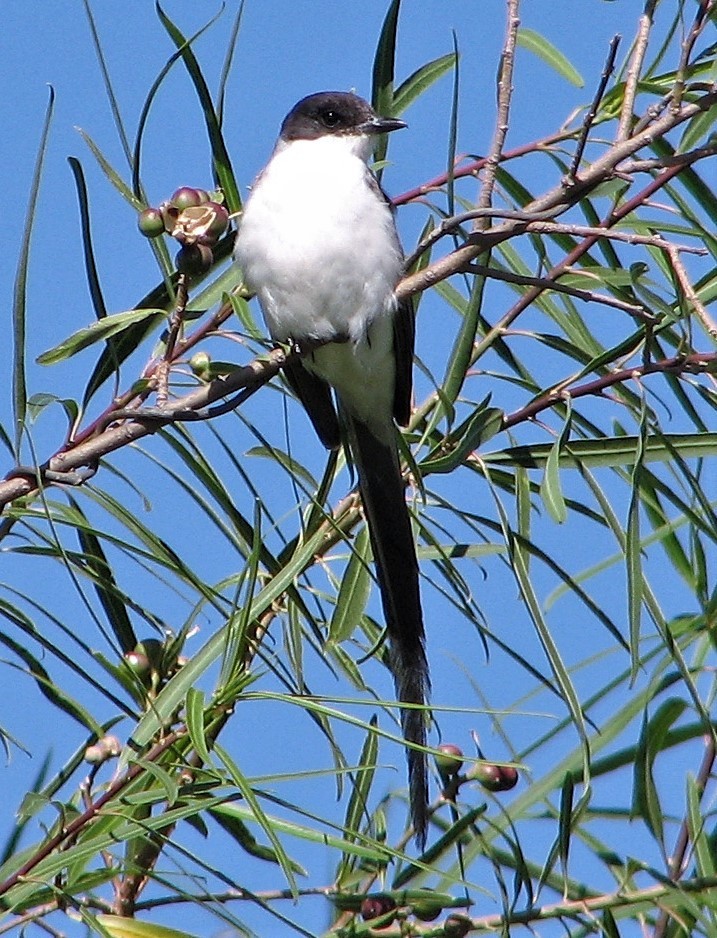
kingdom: Animalia
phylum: Chordata
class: Aves
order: Passeriformes
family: Tyrannidae
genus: Tyrannus
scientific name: Tyrannus savana
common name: Fork-tailed flycatcher
